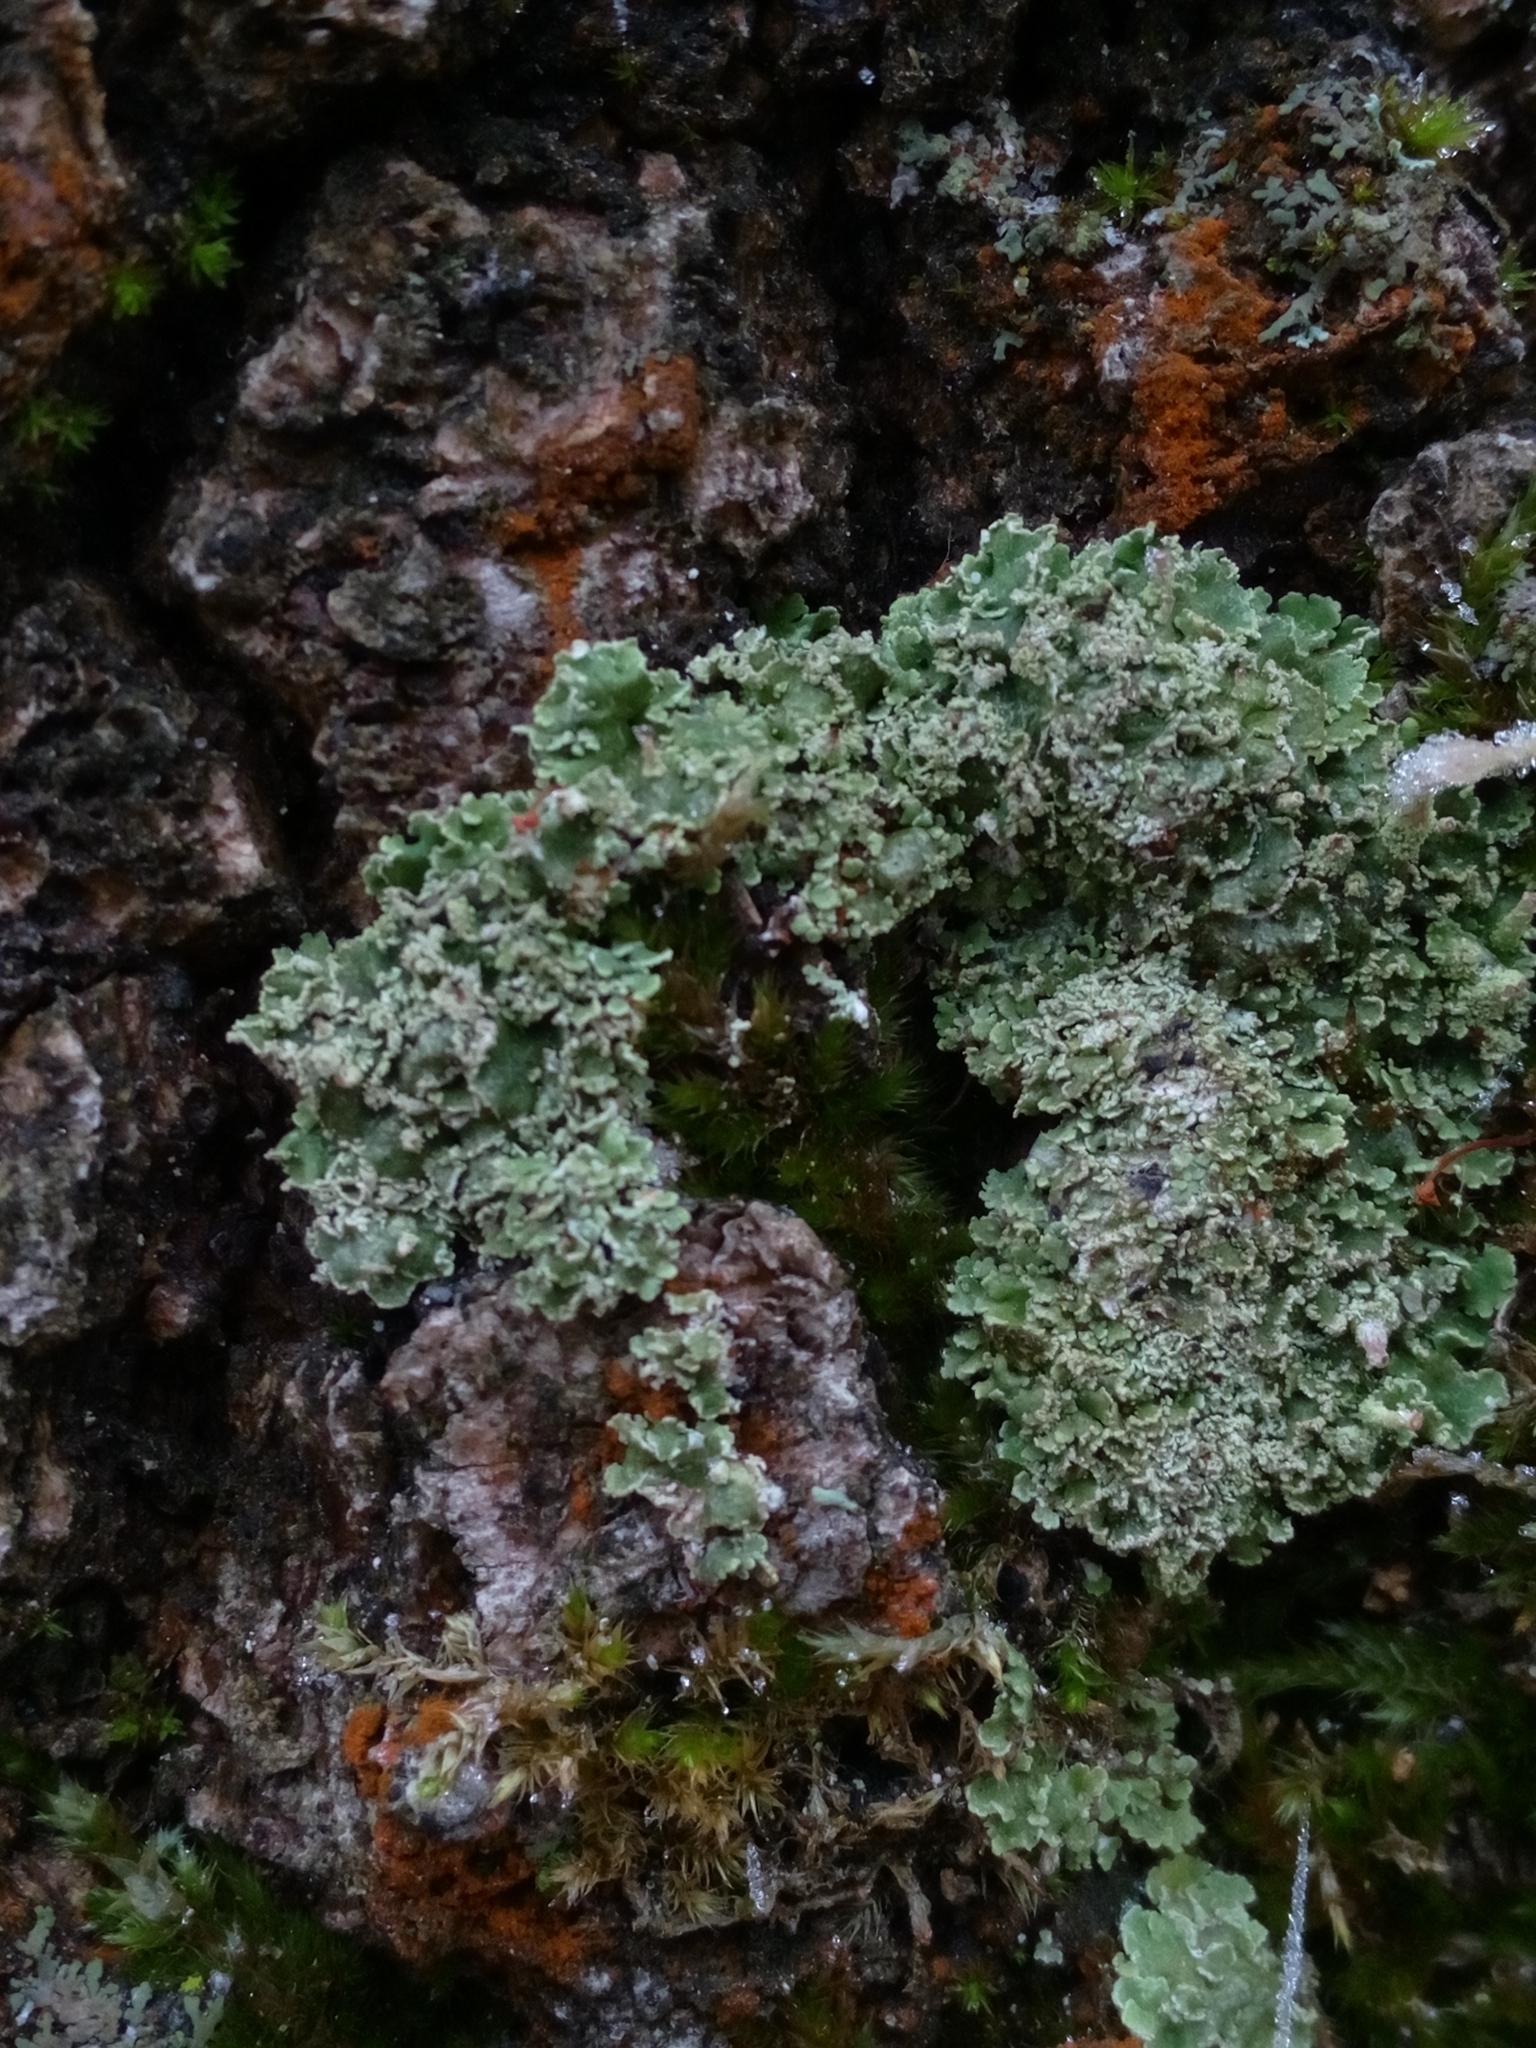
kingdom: Fungi
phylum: Ascomycota
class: Lecanoromycetes
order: Lecanorales
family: Cladoniaceae
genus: Cladonia
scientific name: Cladonia
